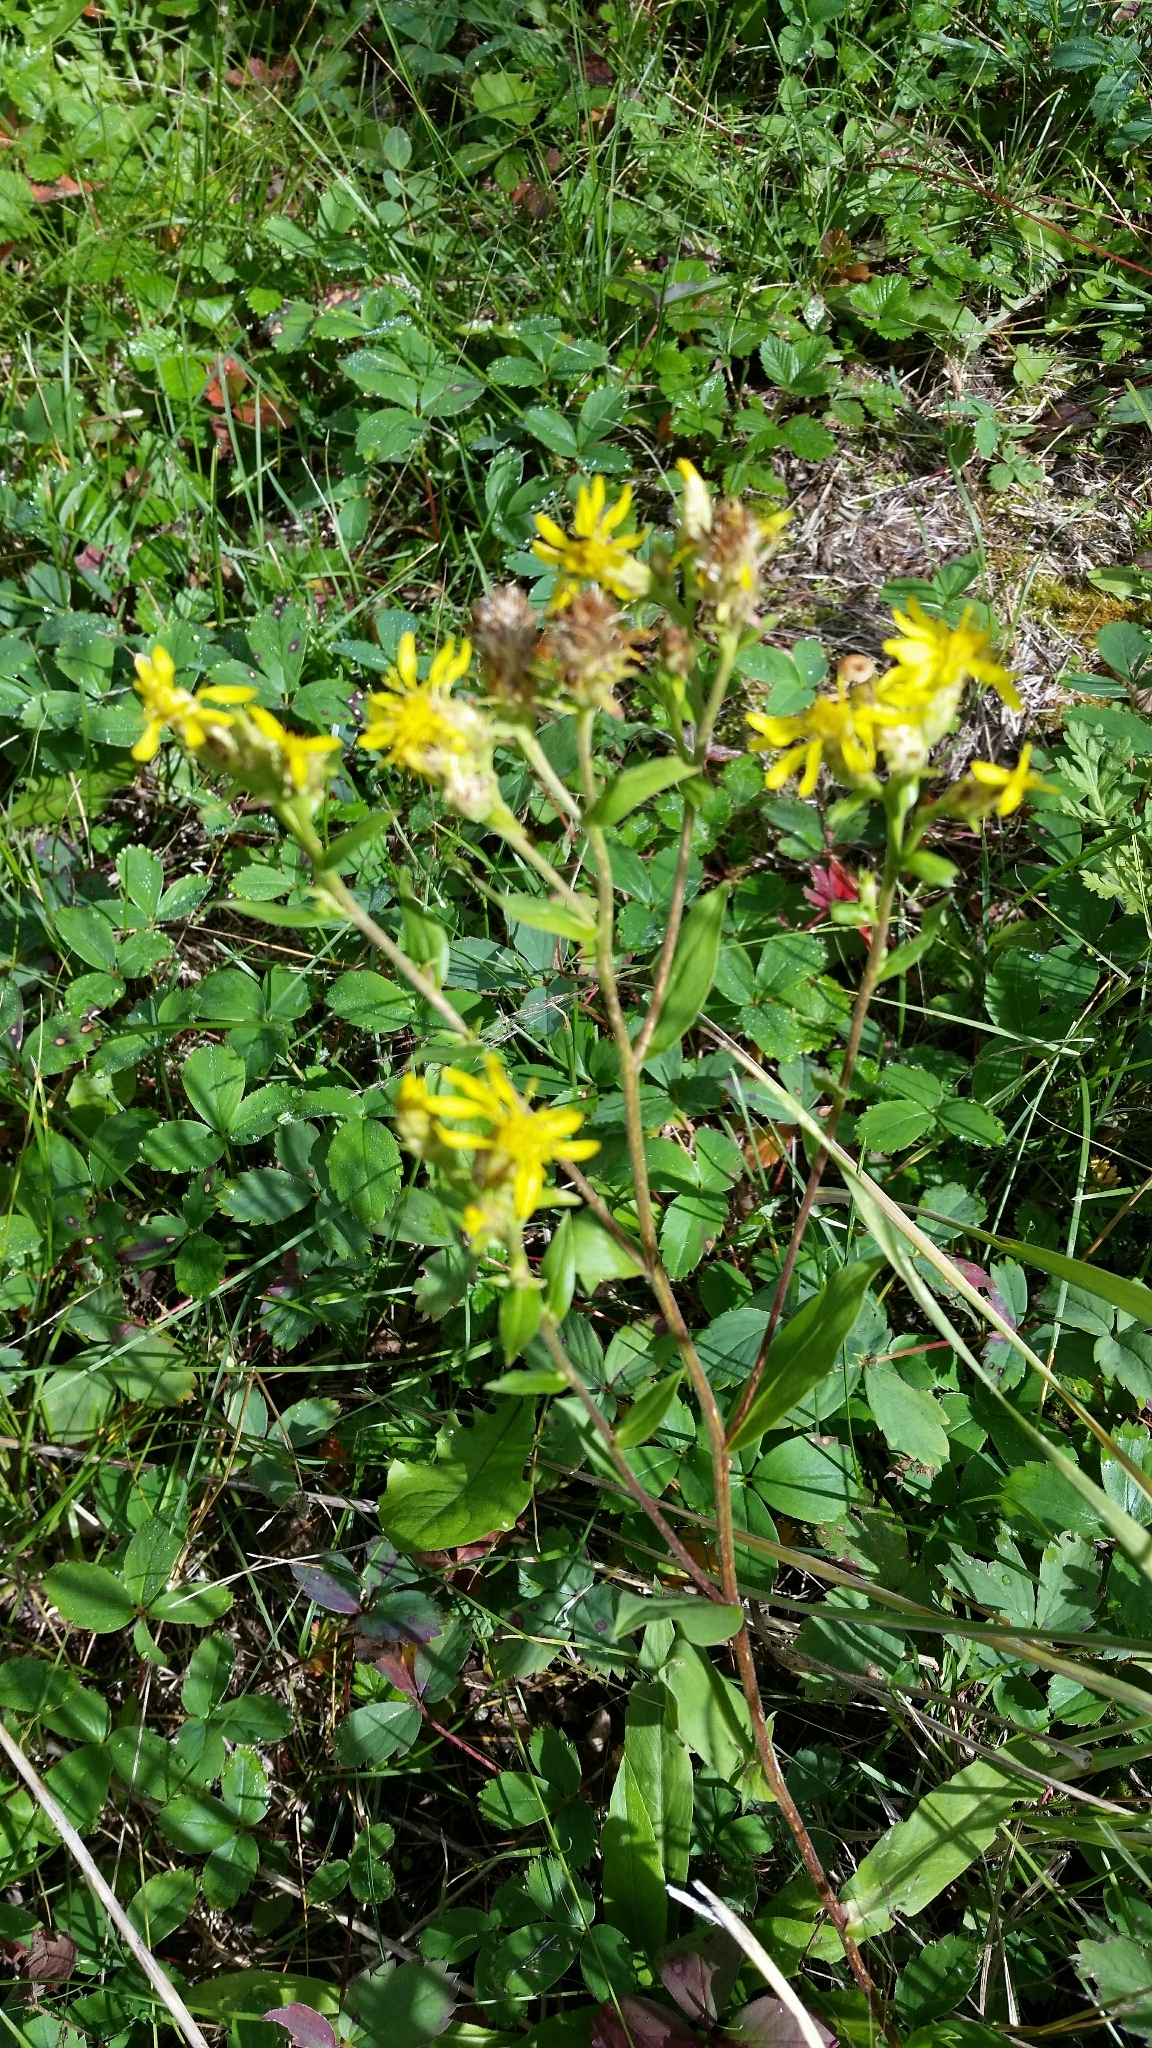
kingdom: Plantae
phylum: Tracheophyta
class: Magnoliopsida
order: Asterales
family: Asteraceae
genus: Oreochrysum
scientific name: Oreochrysum parryi
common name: Parry's goldenweed
